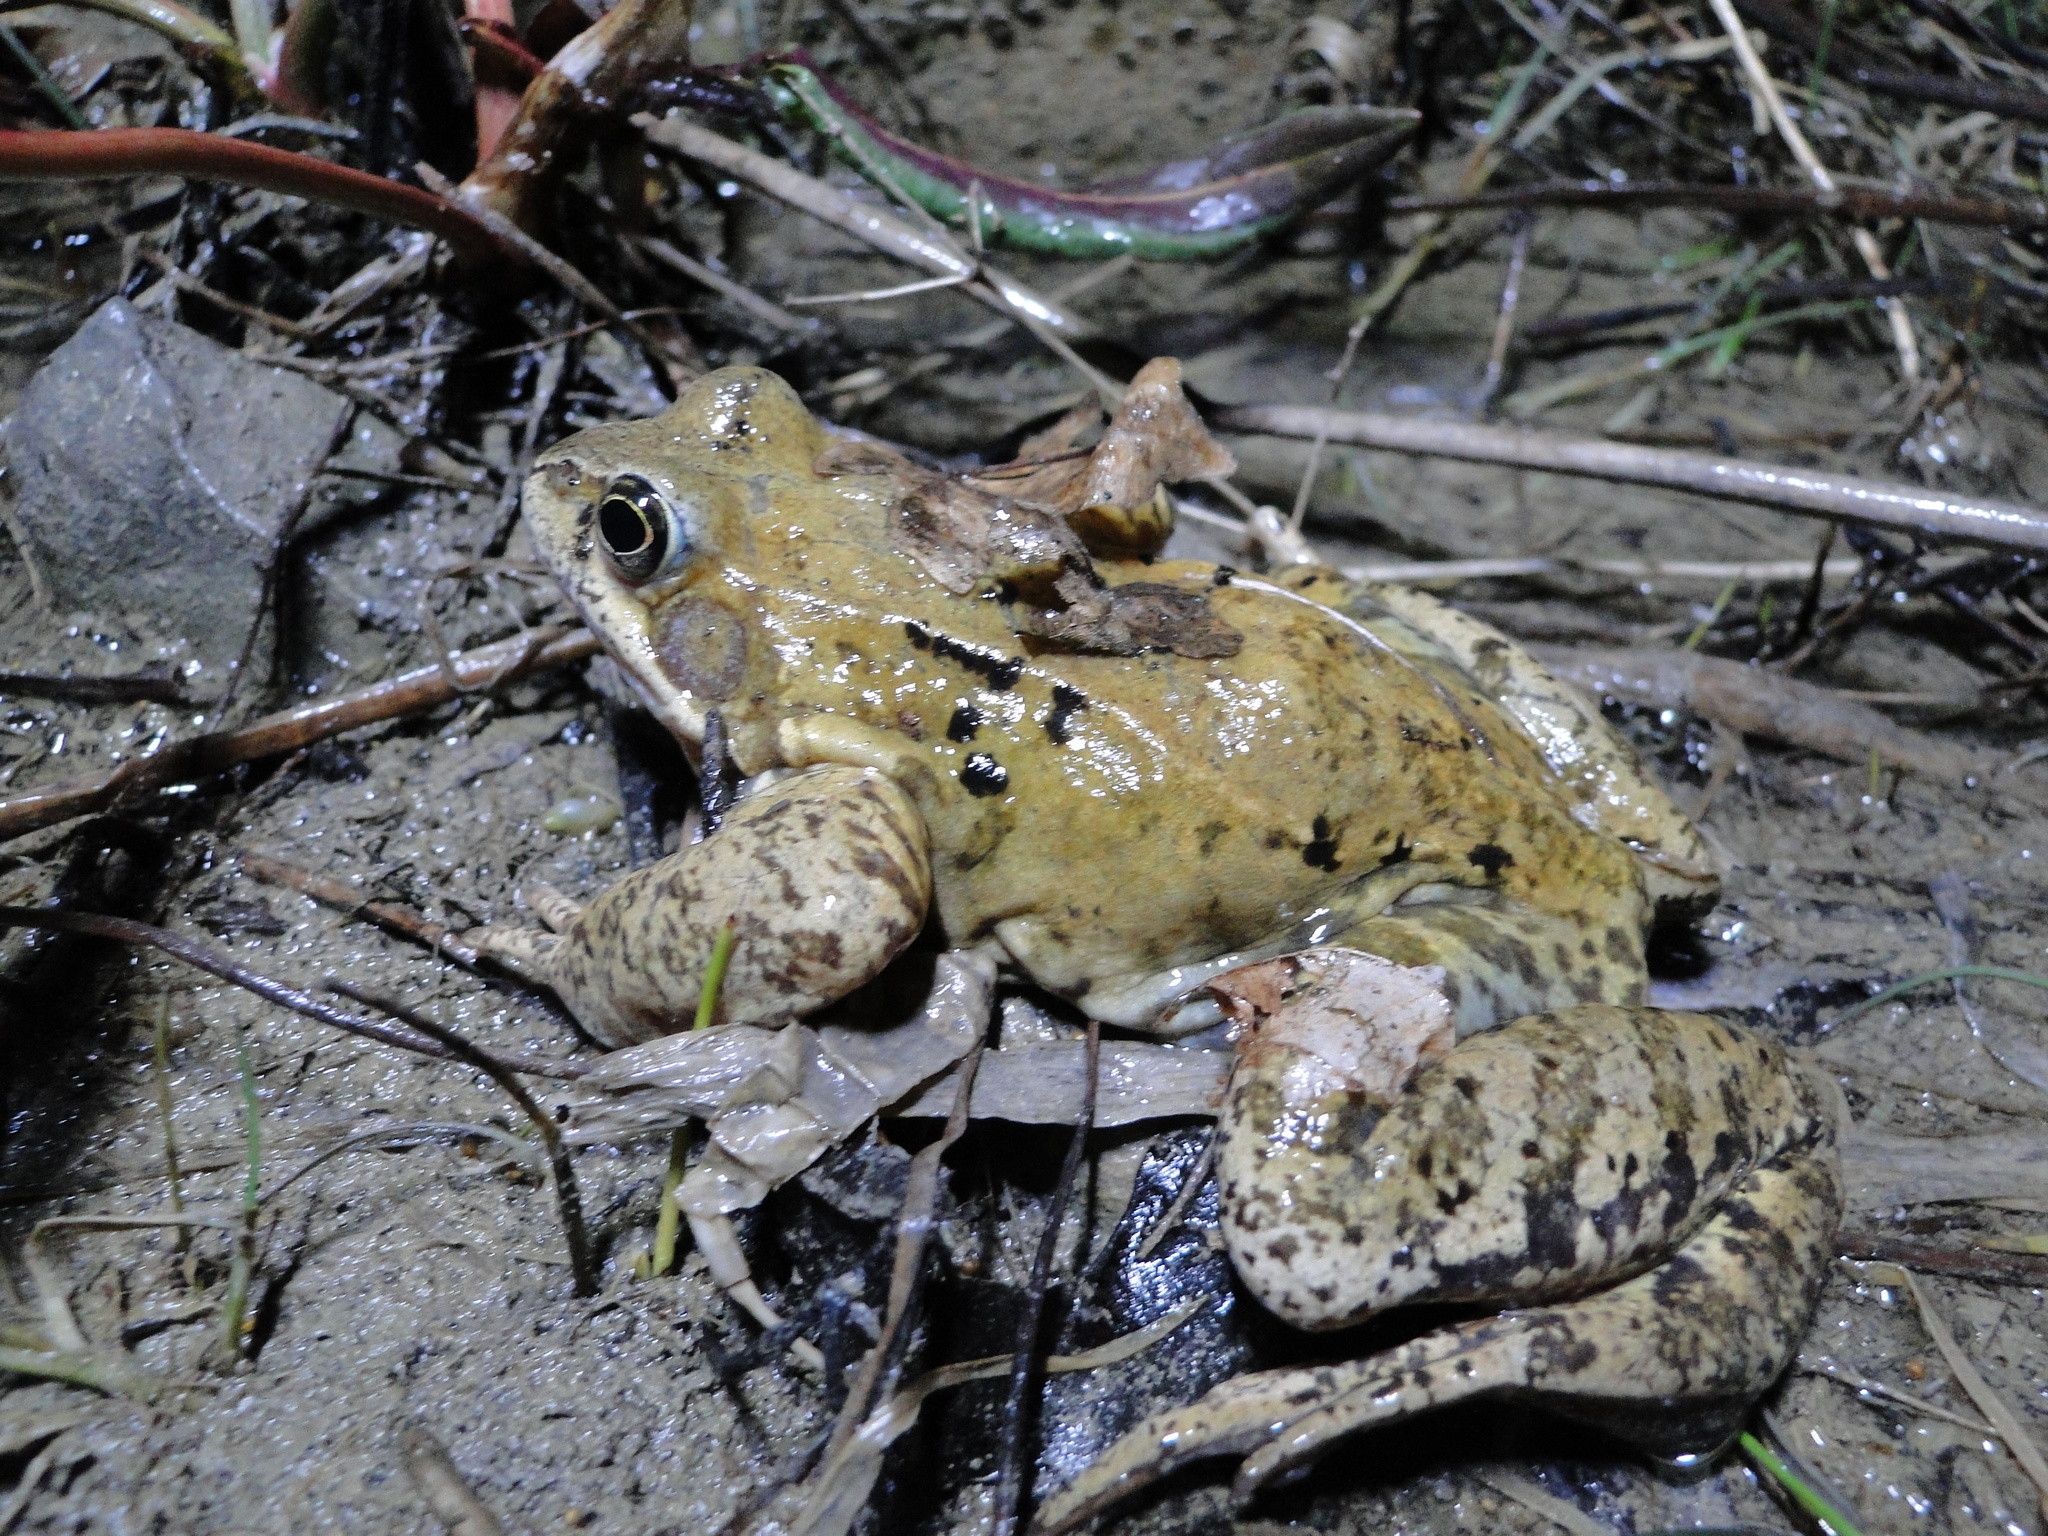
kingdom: Animalia
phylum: Chordata
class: Amphibia
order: Anura
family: Ranidae
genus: Rana
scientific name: Rana temporaria
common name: Common frog
